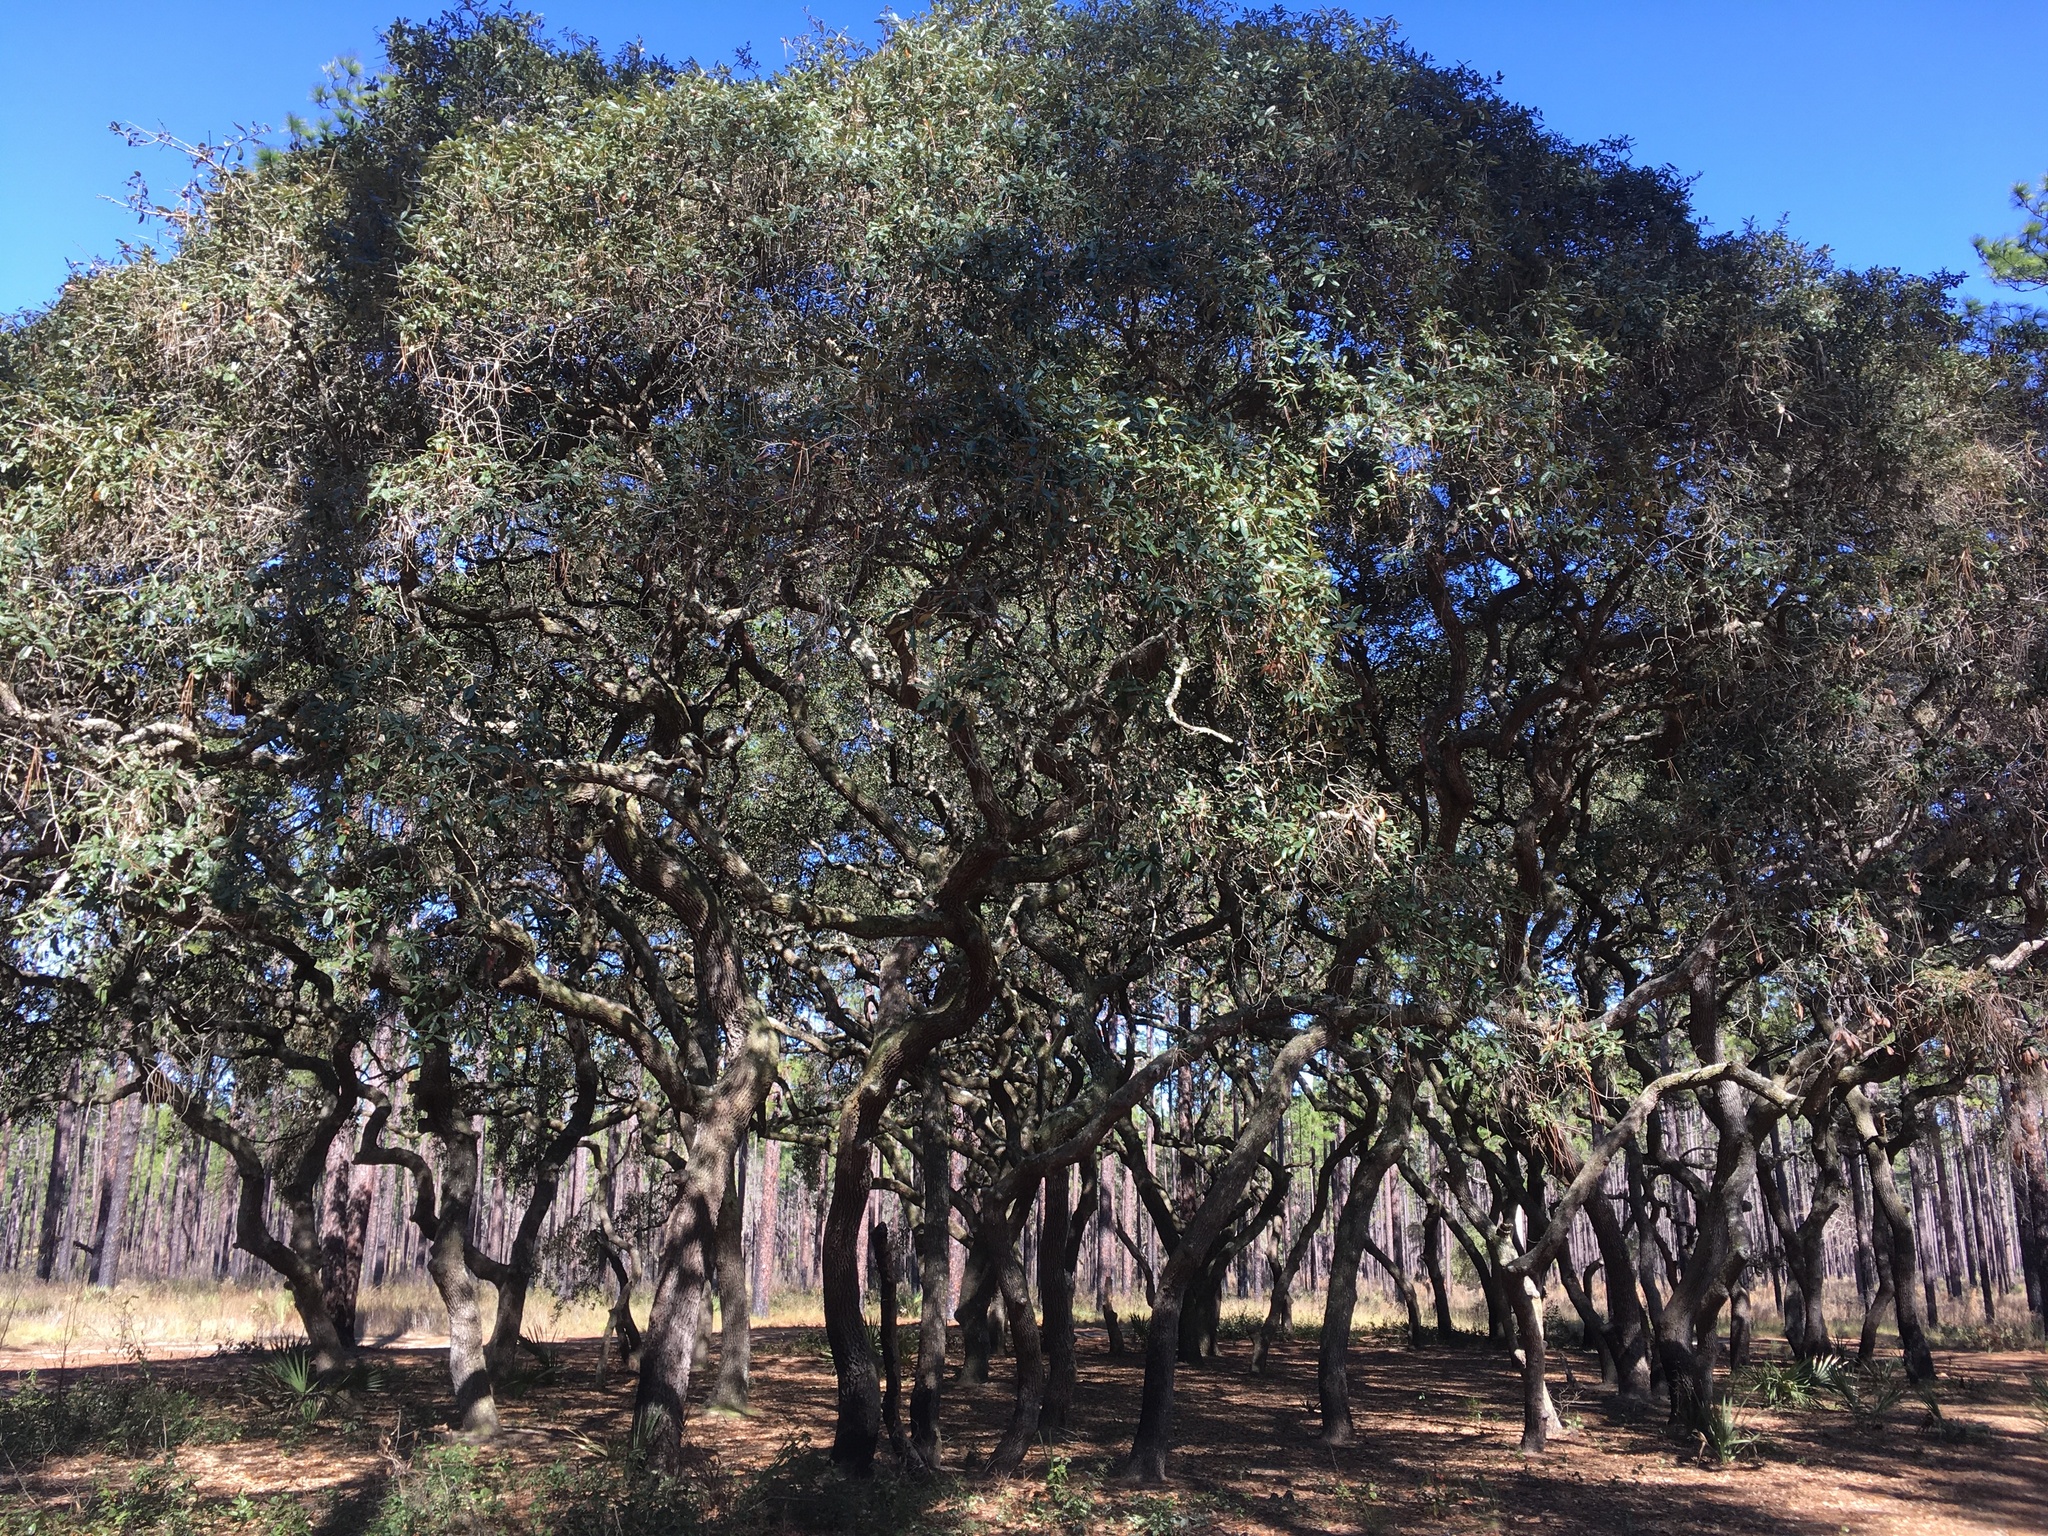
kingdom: Plantae
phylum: Tracheophyta
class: Magnoliopsida
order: Fagales
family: Fagaceae
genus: Quercus
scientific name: Quercus geminata
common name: Sand live oak
